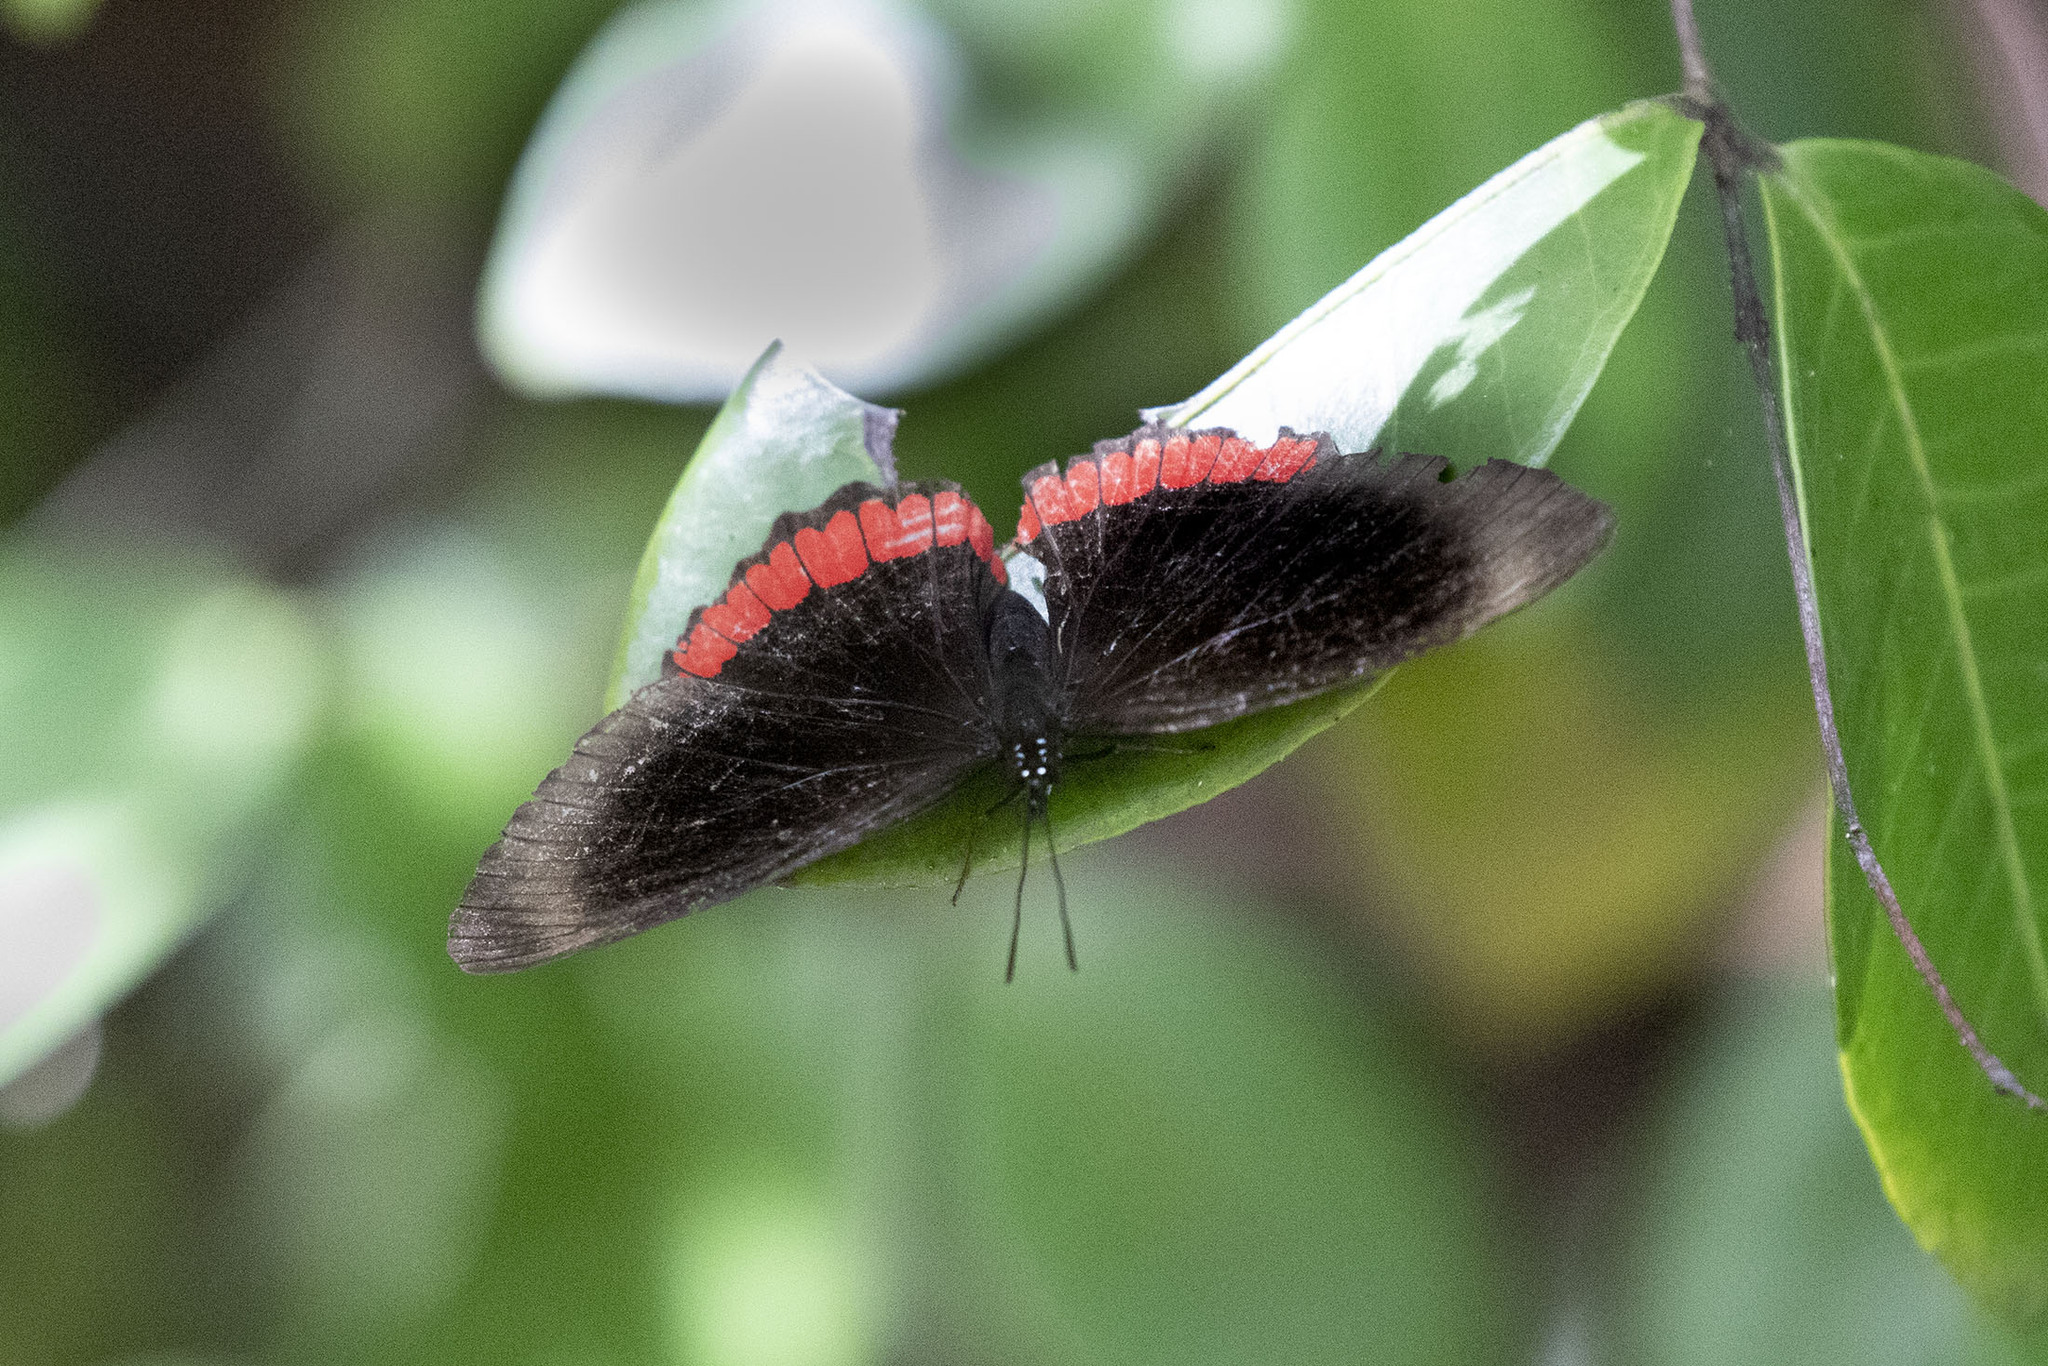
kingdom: Animalia
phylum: Arthropoda
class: Insecta
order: Lepidoptera
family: Sesiidae
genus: Sesia
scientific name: Sesia Biblis hyperia
